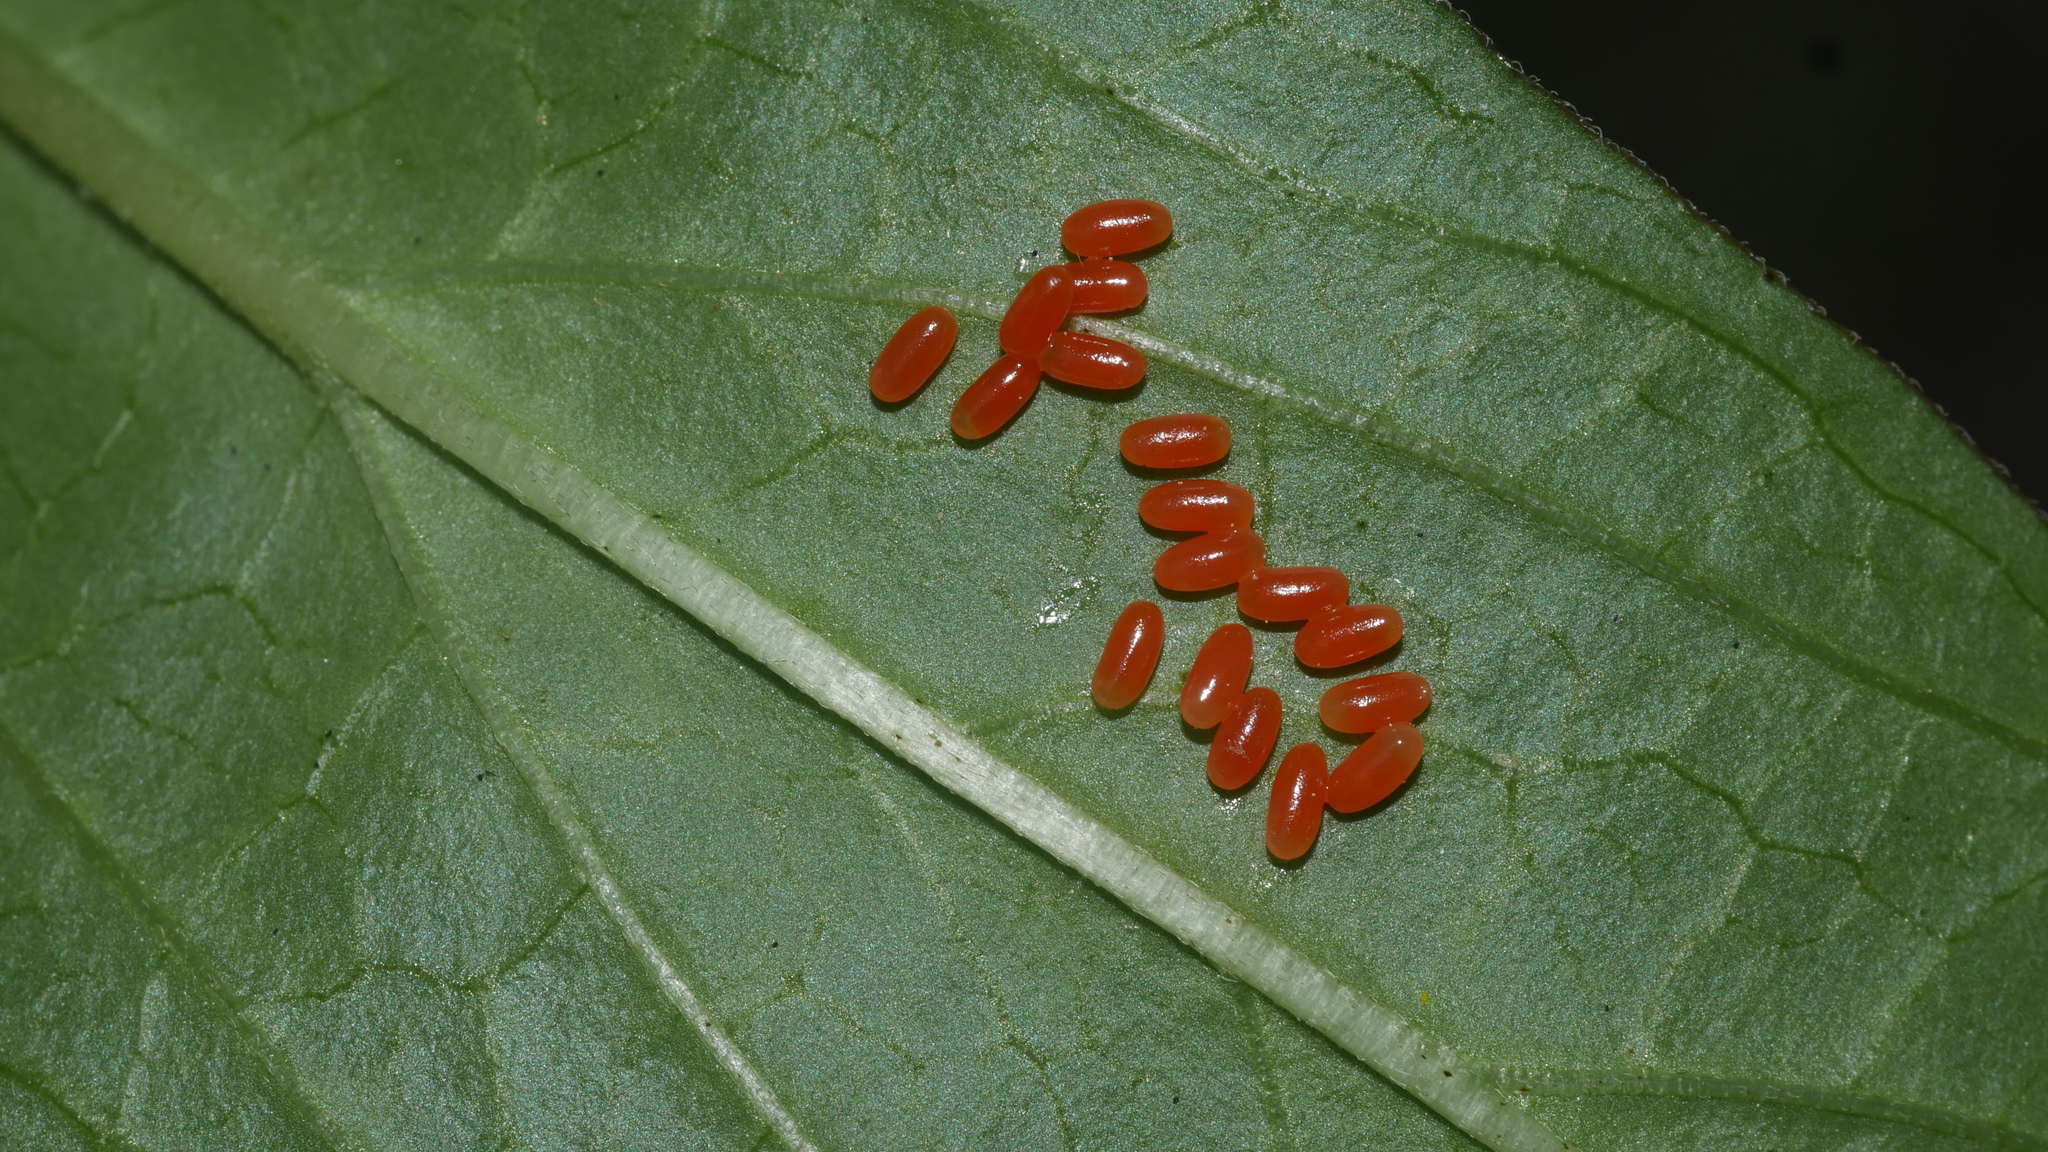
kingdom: Animalia
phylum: Arthropoda
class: Insecta
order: Coleoptera
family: Chrysomelidae
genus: Labidomera
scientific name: Labidomera clivicollis
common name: Swamp milkweed leaf beetle
